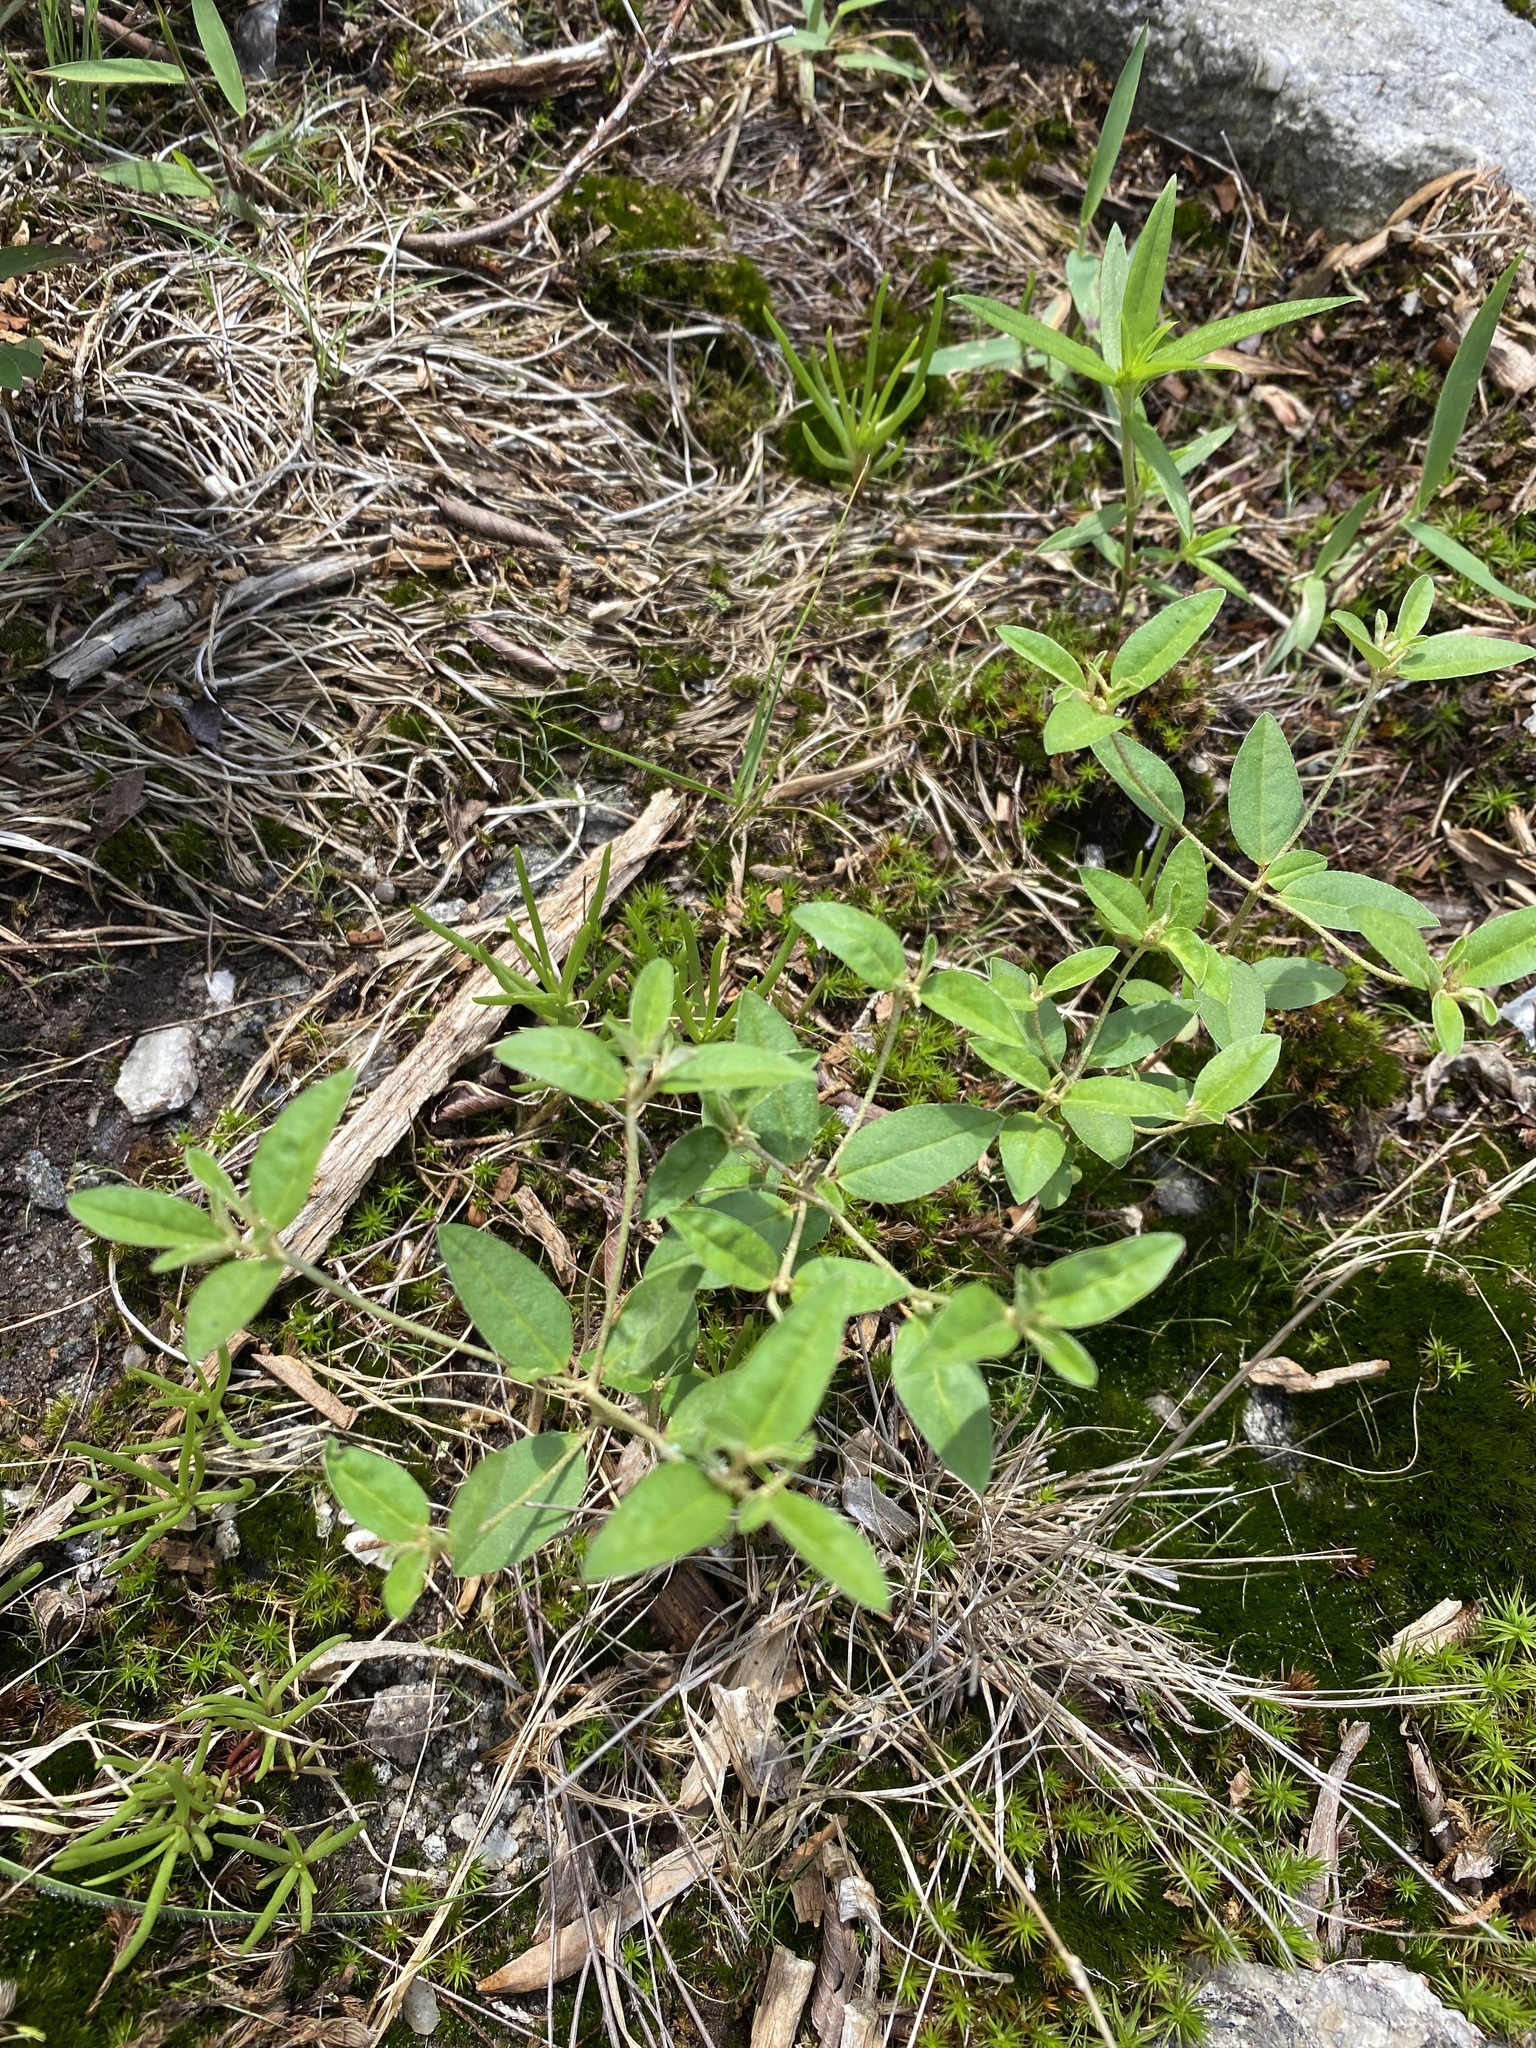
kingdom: Plantae
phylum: Tracheophyta
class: Magnoliopsida
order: Malpighiales
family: Euphorbiaceae
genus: Croton
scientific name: Croton michauxii
